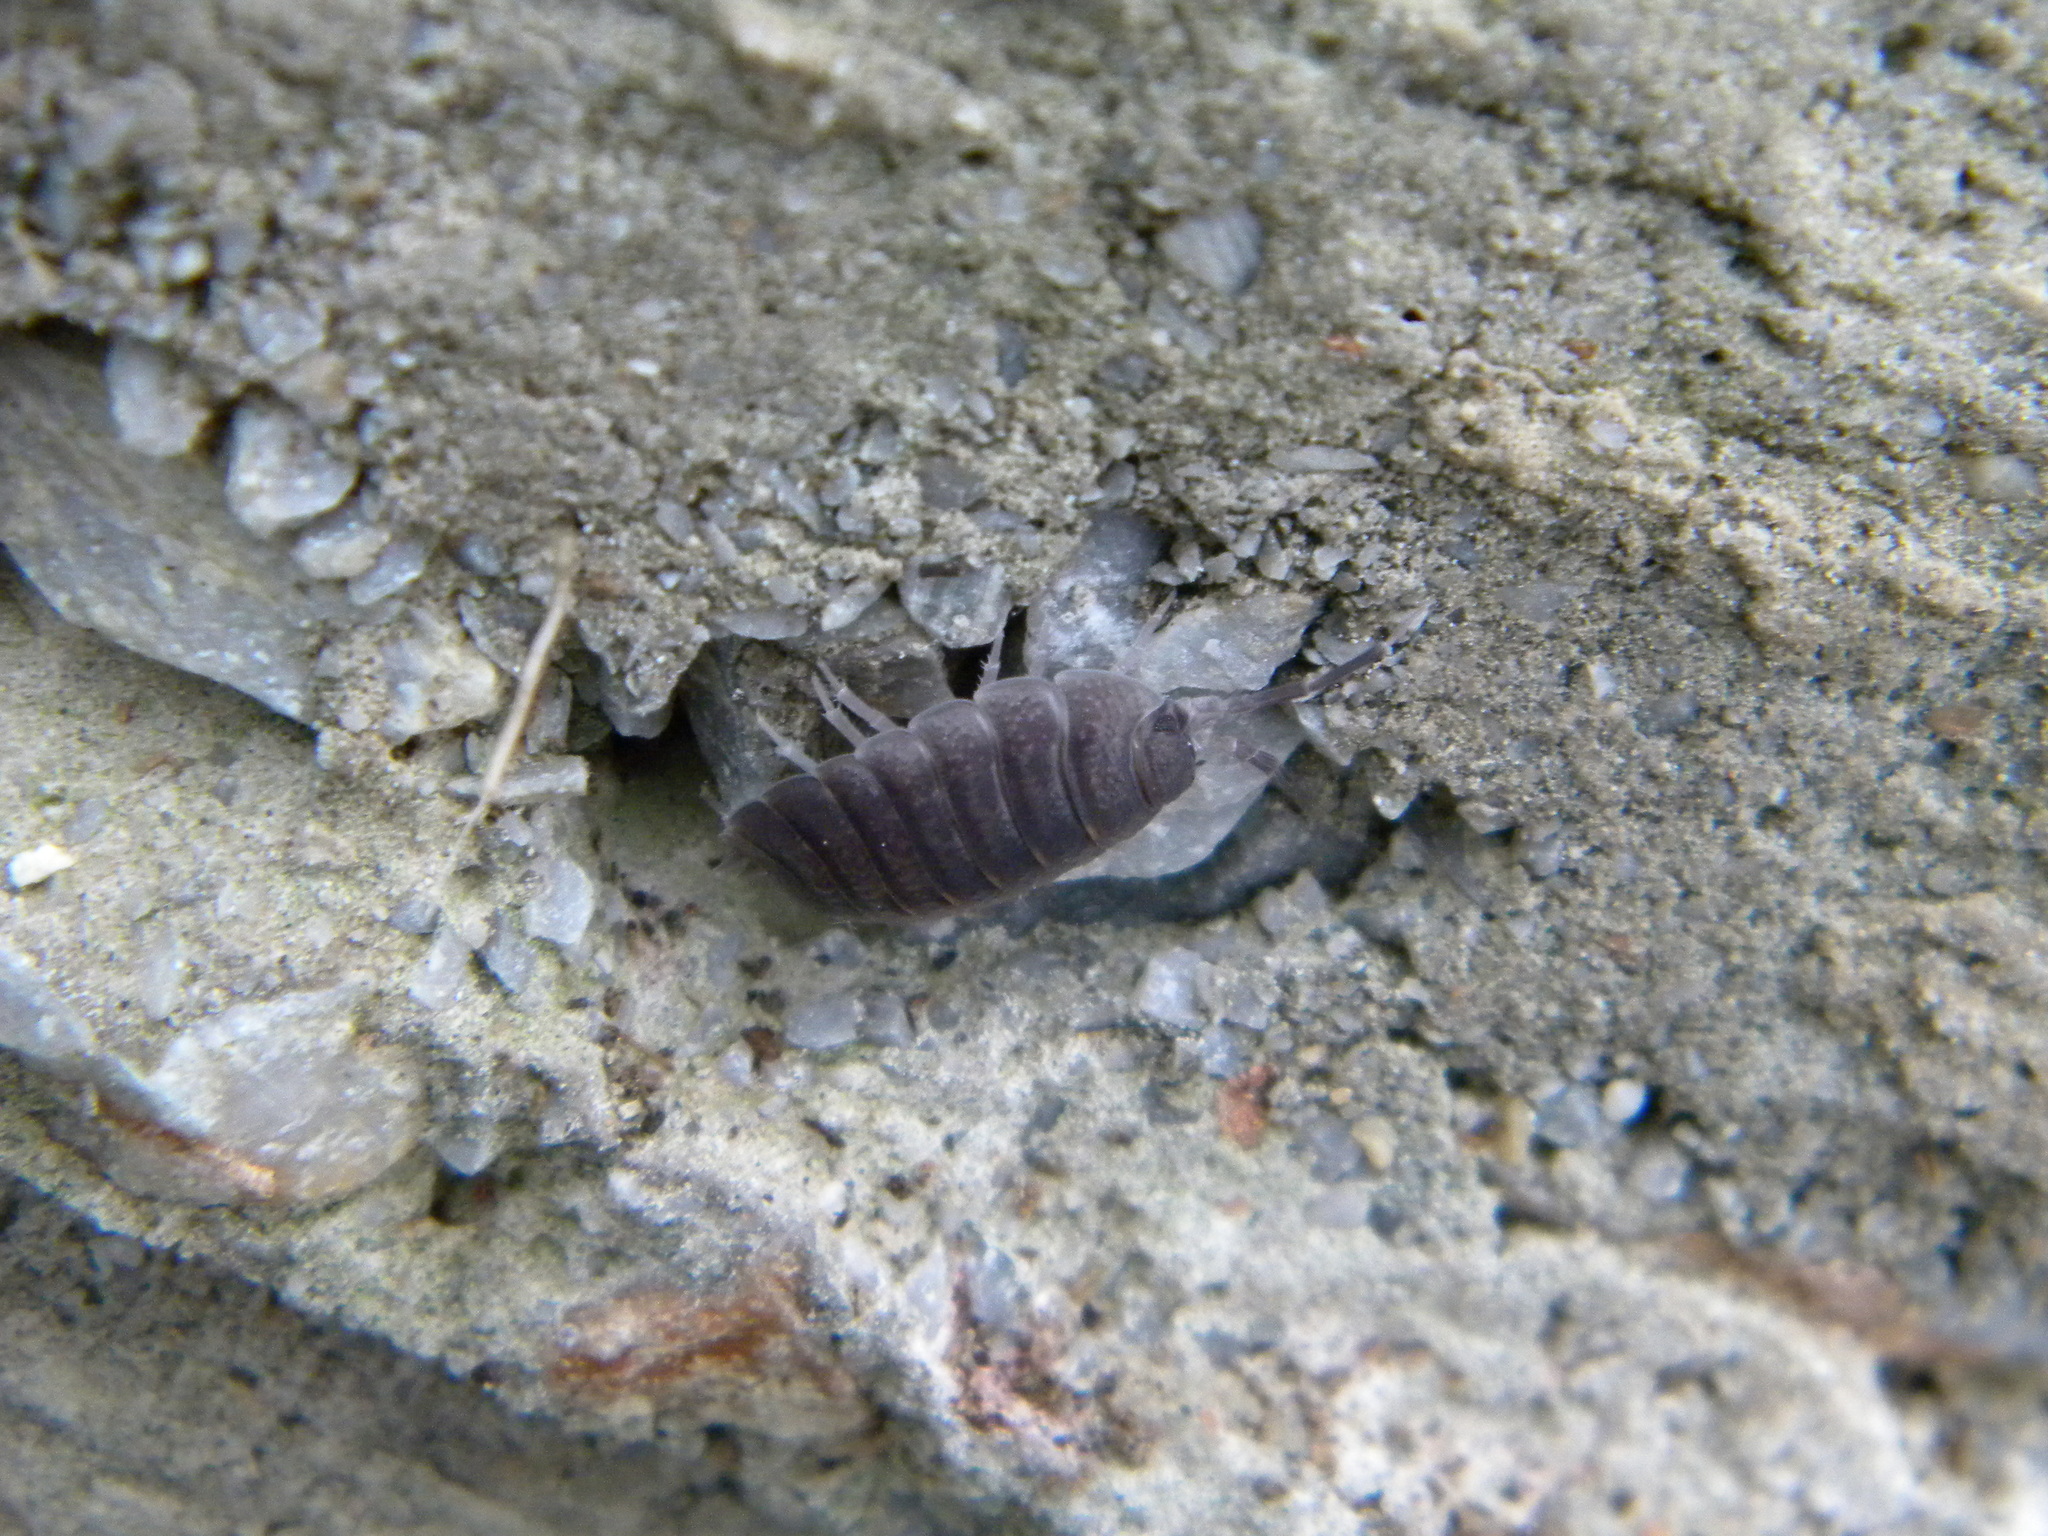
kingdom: Animalia
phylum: Arthropoda
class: Malacostraca
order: Isopoda
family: Porcellionidae
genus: Porcellio
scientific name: Porcellio obsoletus
